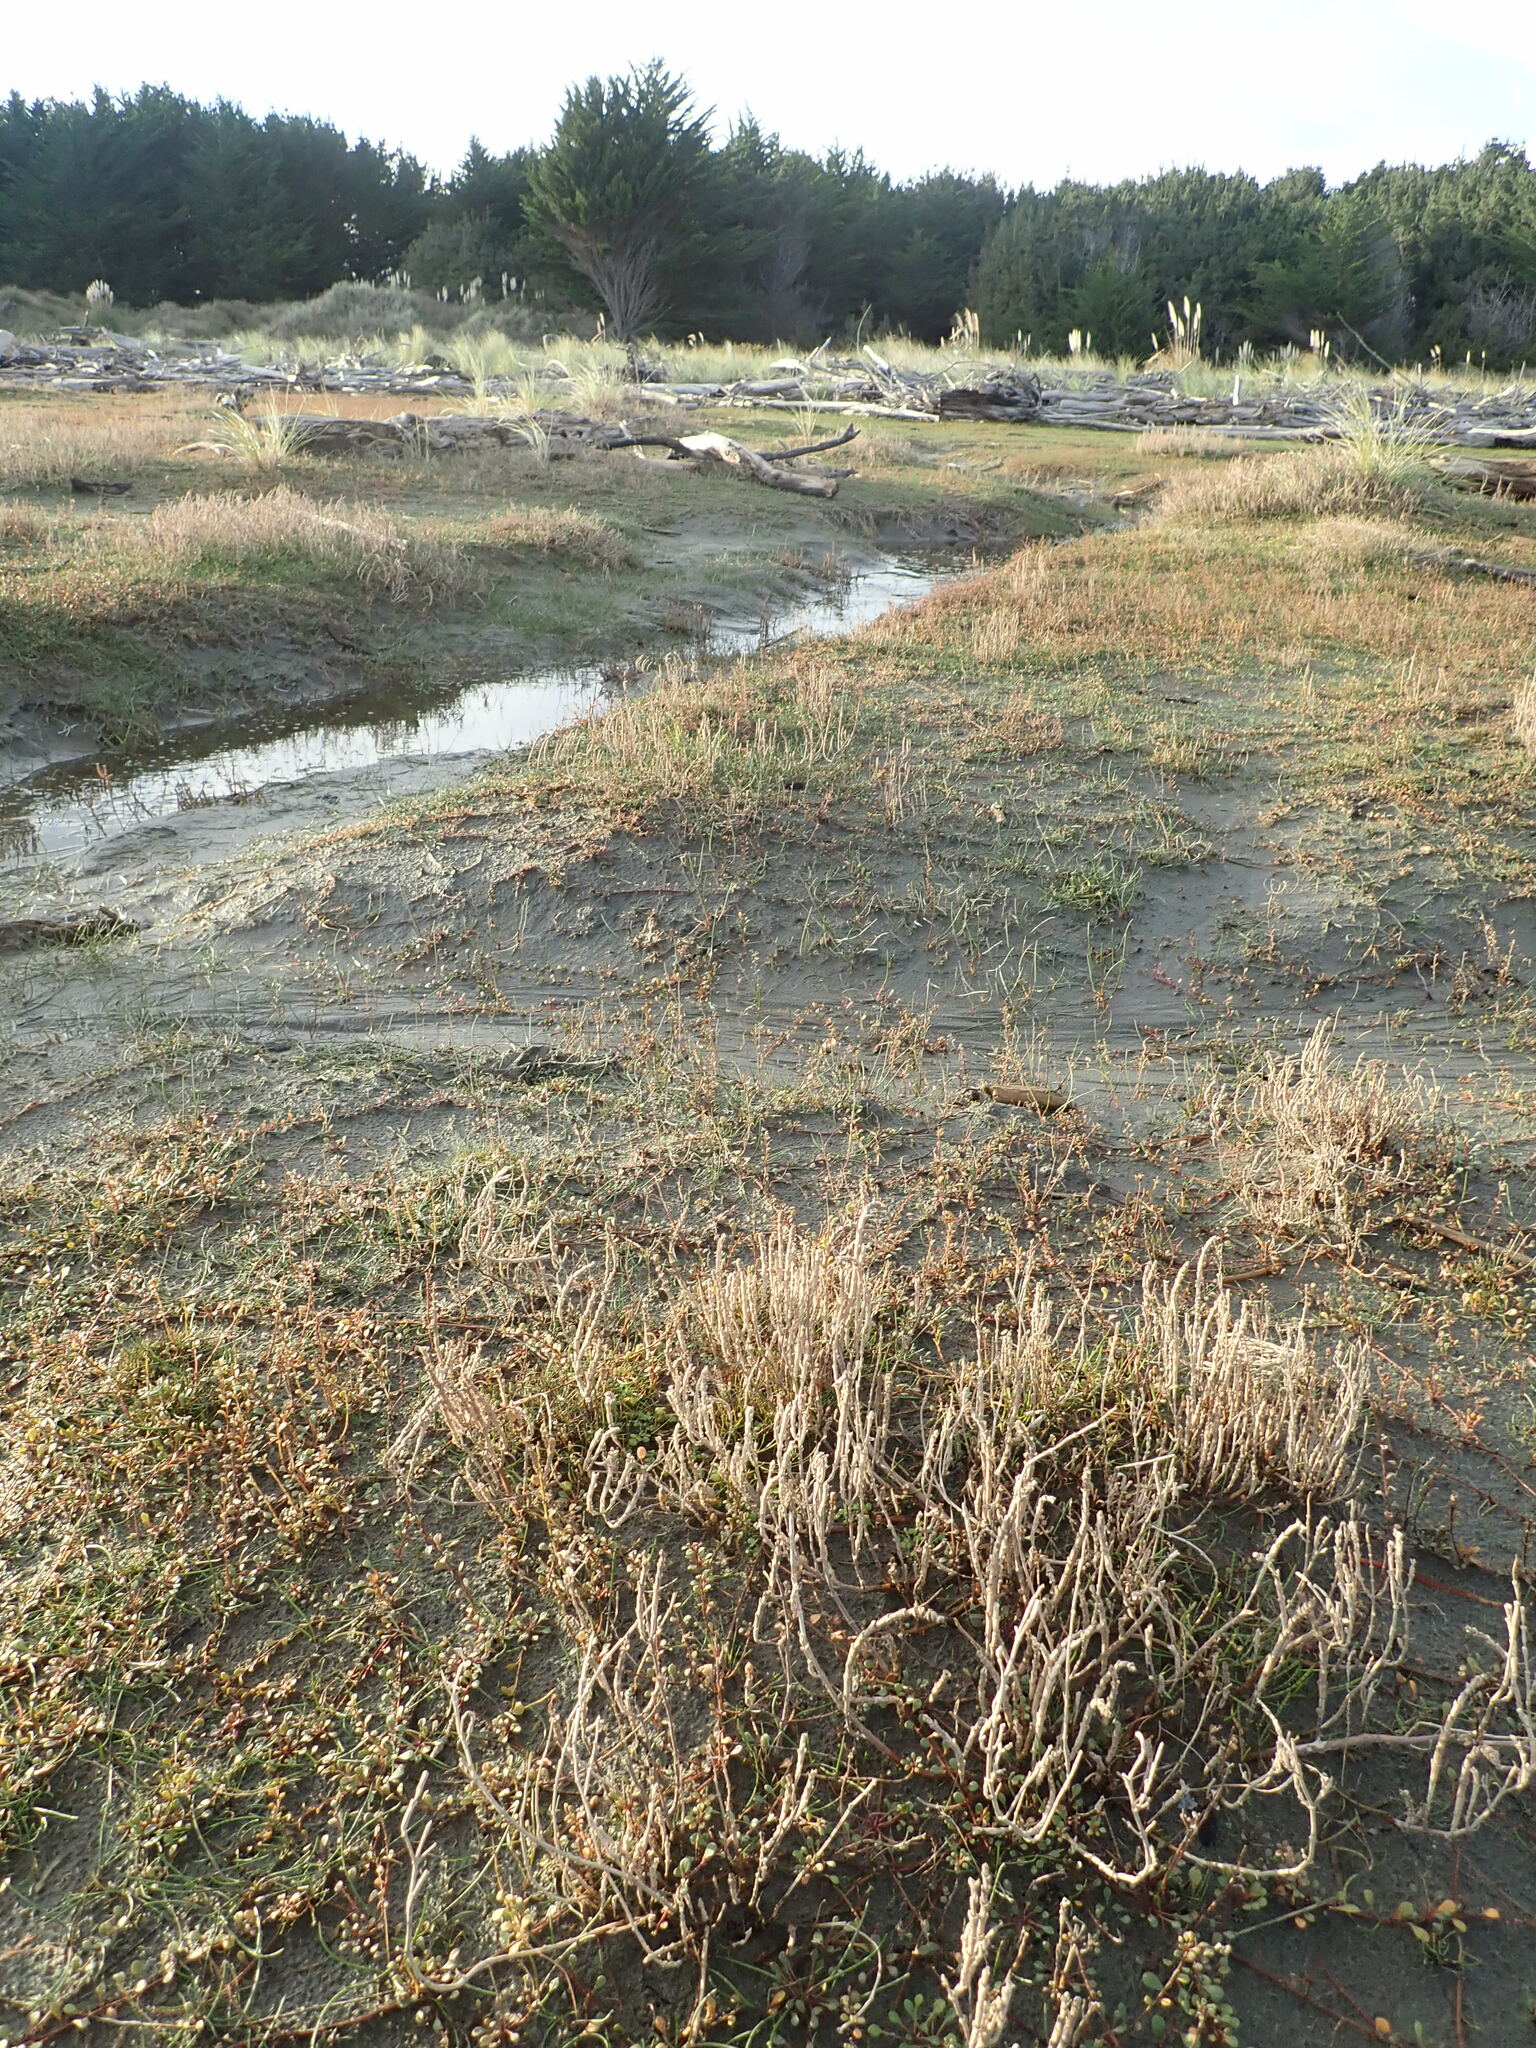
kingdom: Plantae
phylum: Tracheophyta
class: Magnoliopsida
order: Ranunculales
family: Ranunculaceae
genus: Ranunculus
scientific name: Ranunculus acaulis
